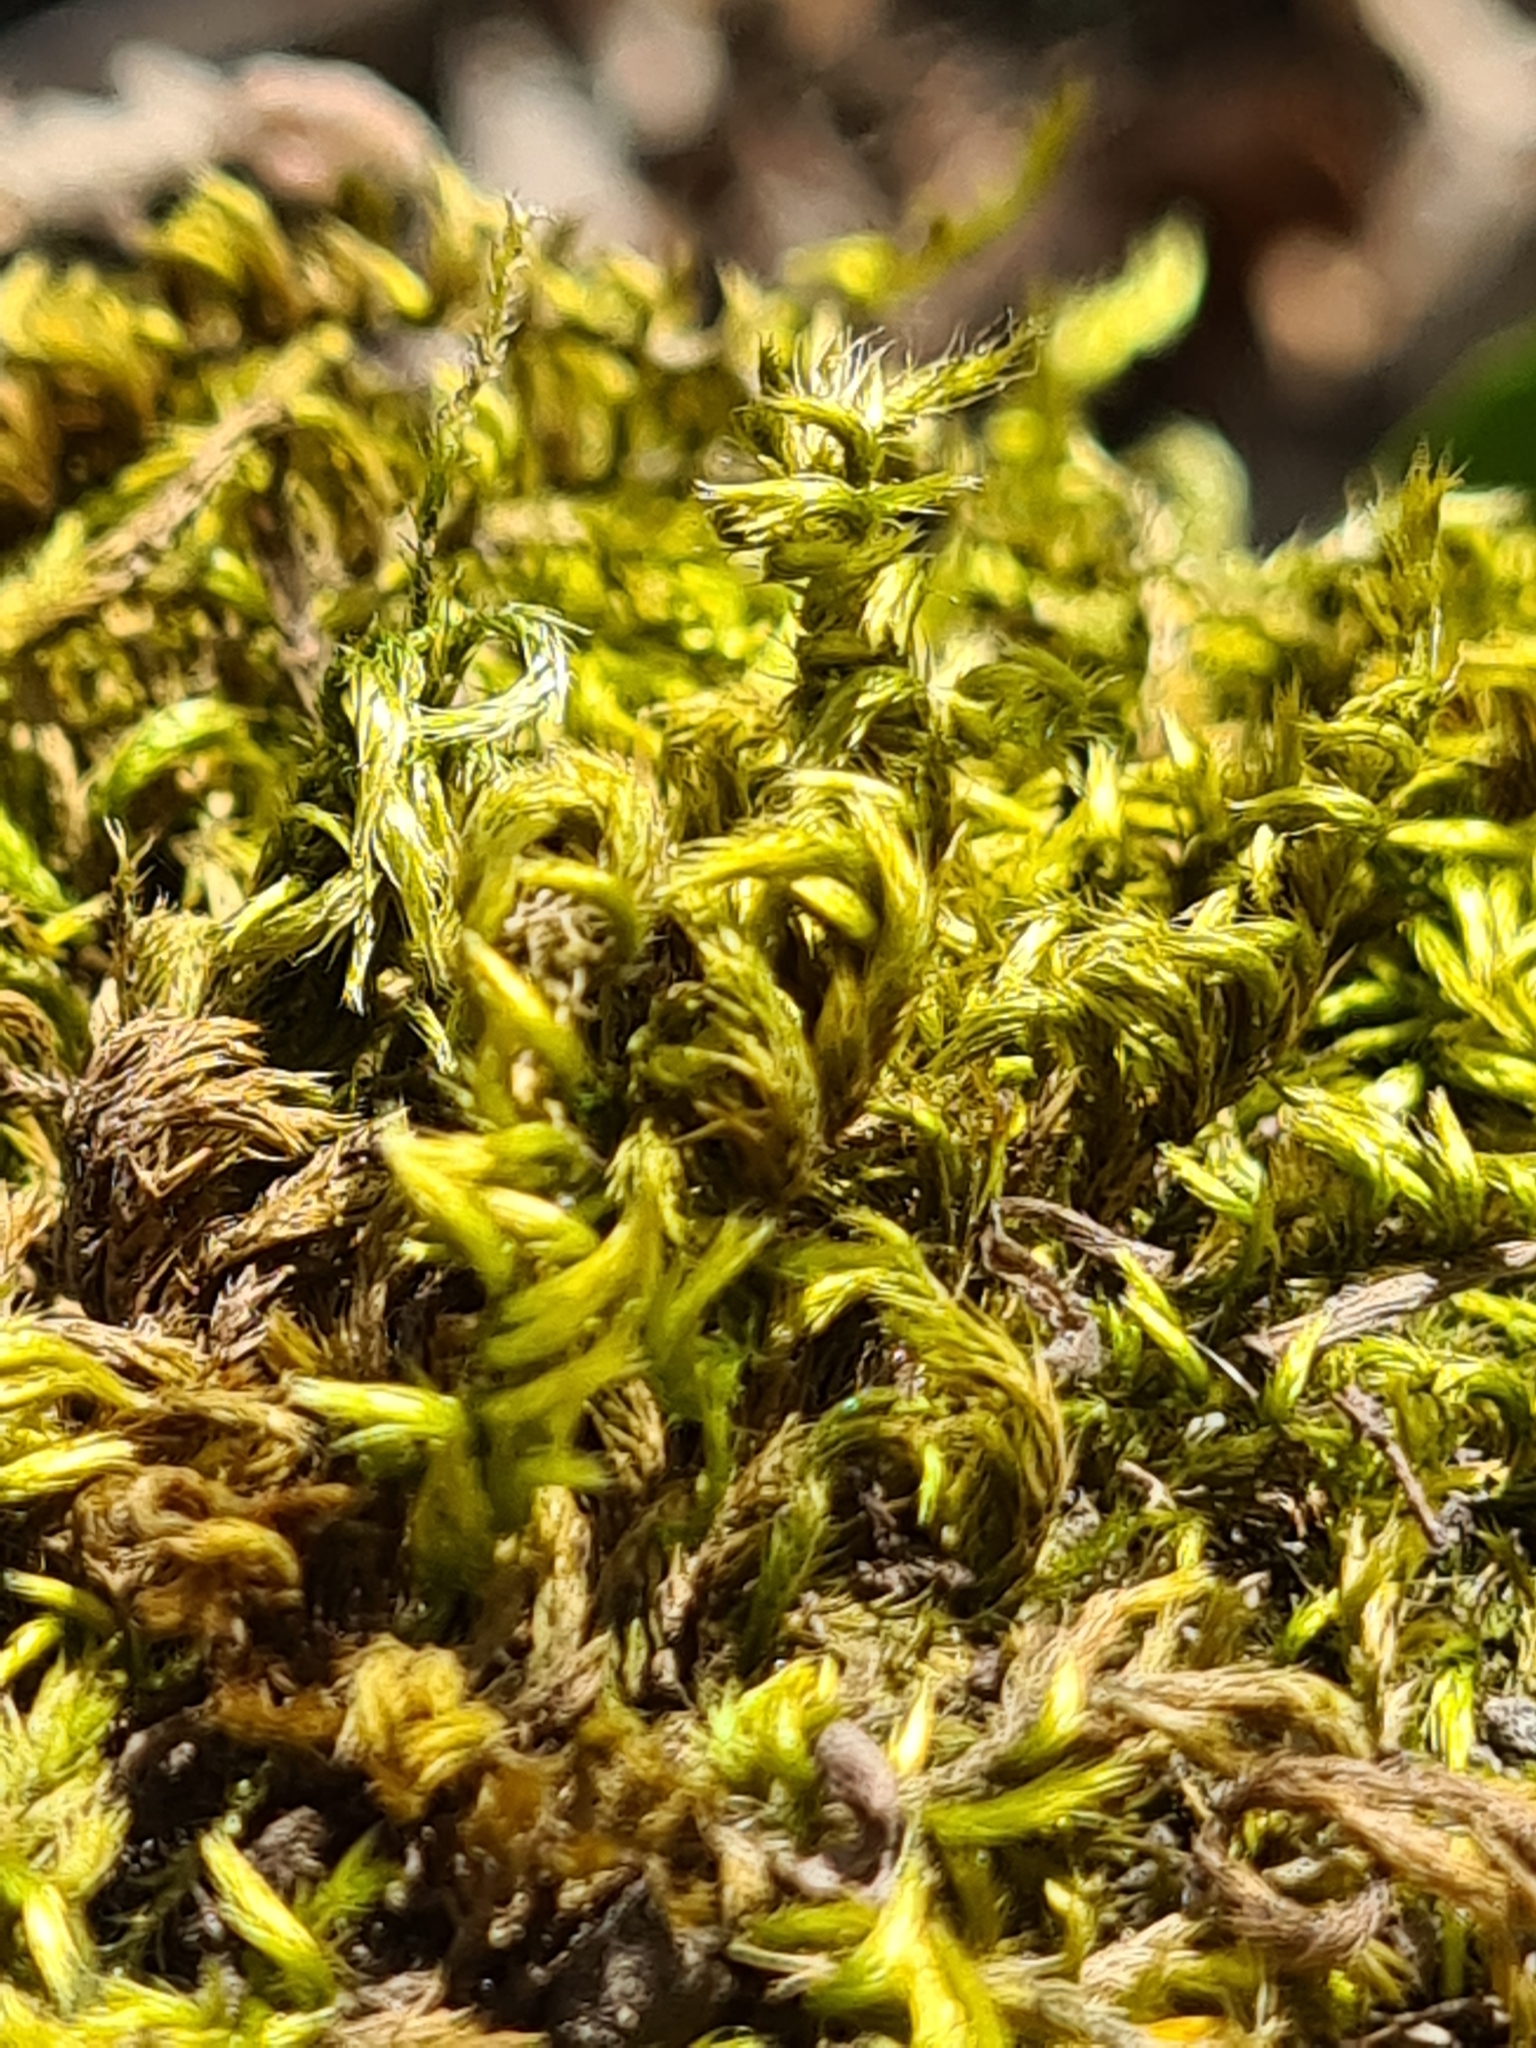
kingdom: Plantae
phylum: Bryophyta
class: Bryopsida
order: Hypnales
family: Brachytheciaceae
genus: Homalothecium
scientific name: Homalothecium sericeum
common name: Silky wall feather-moss
